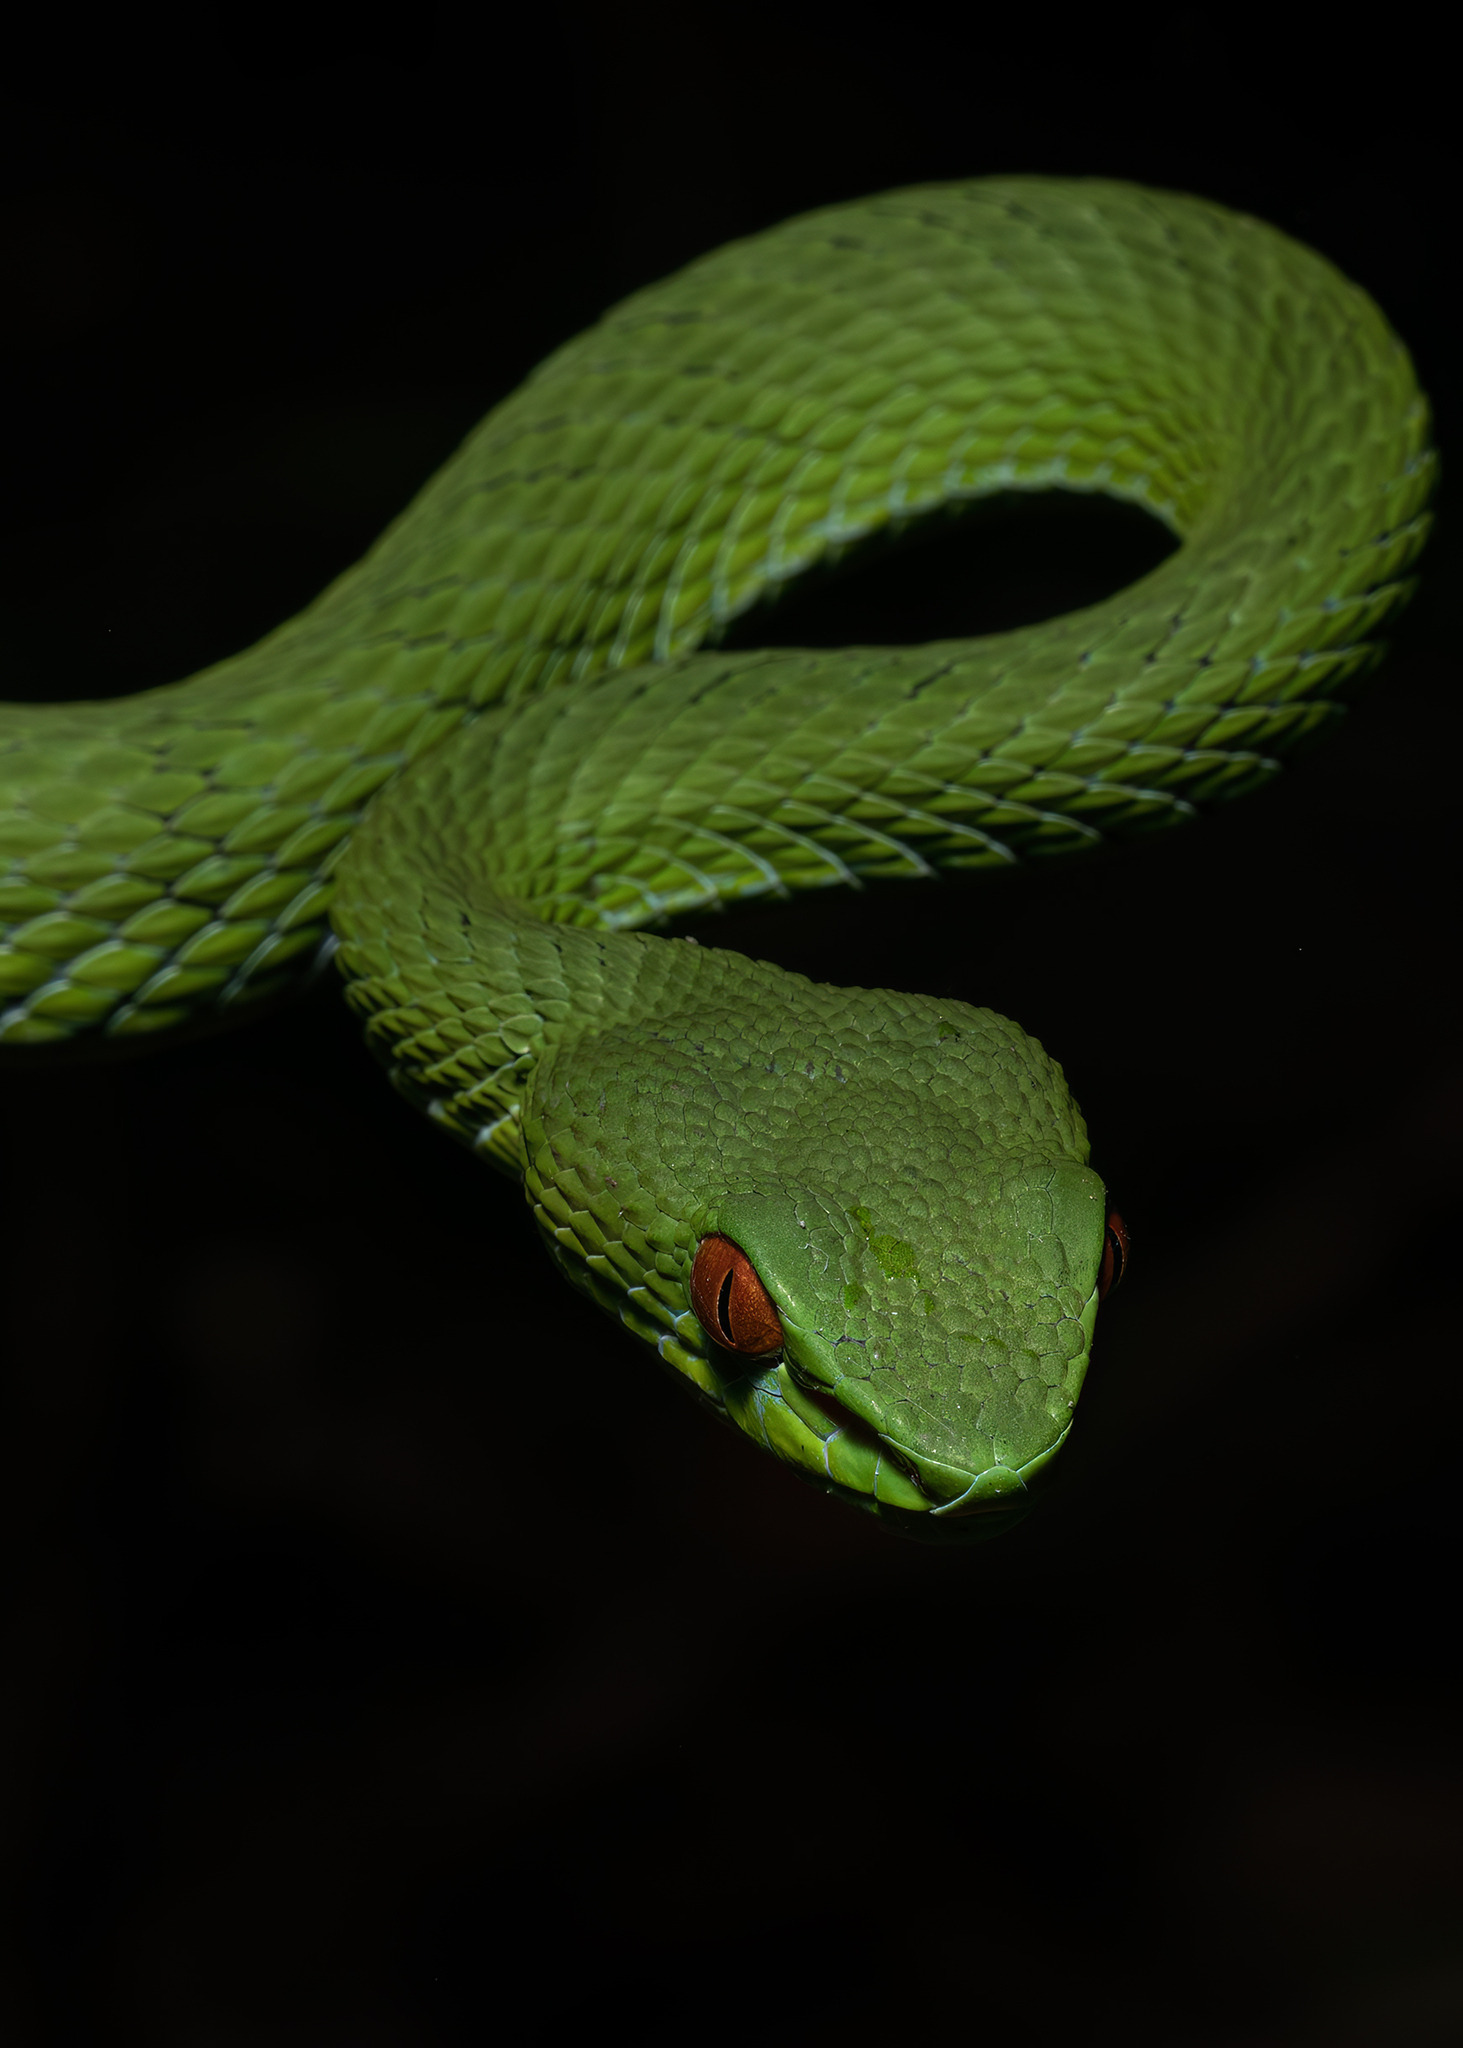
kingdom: Animalia
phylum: Chordata
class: Squamata
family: Viperidae
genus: Craspedocephalus
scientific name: Craspedocephalus rubeus
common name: Ruby-eyed green pitviper
